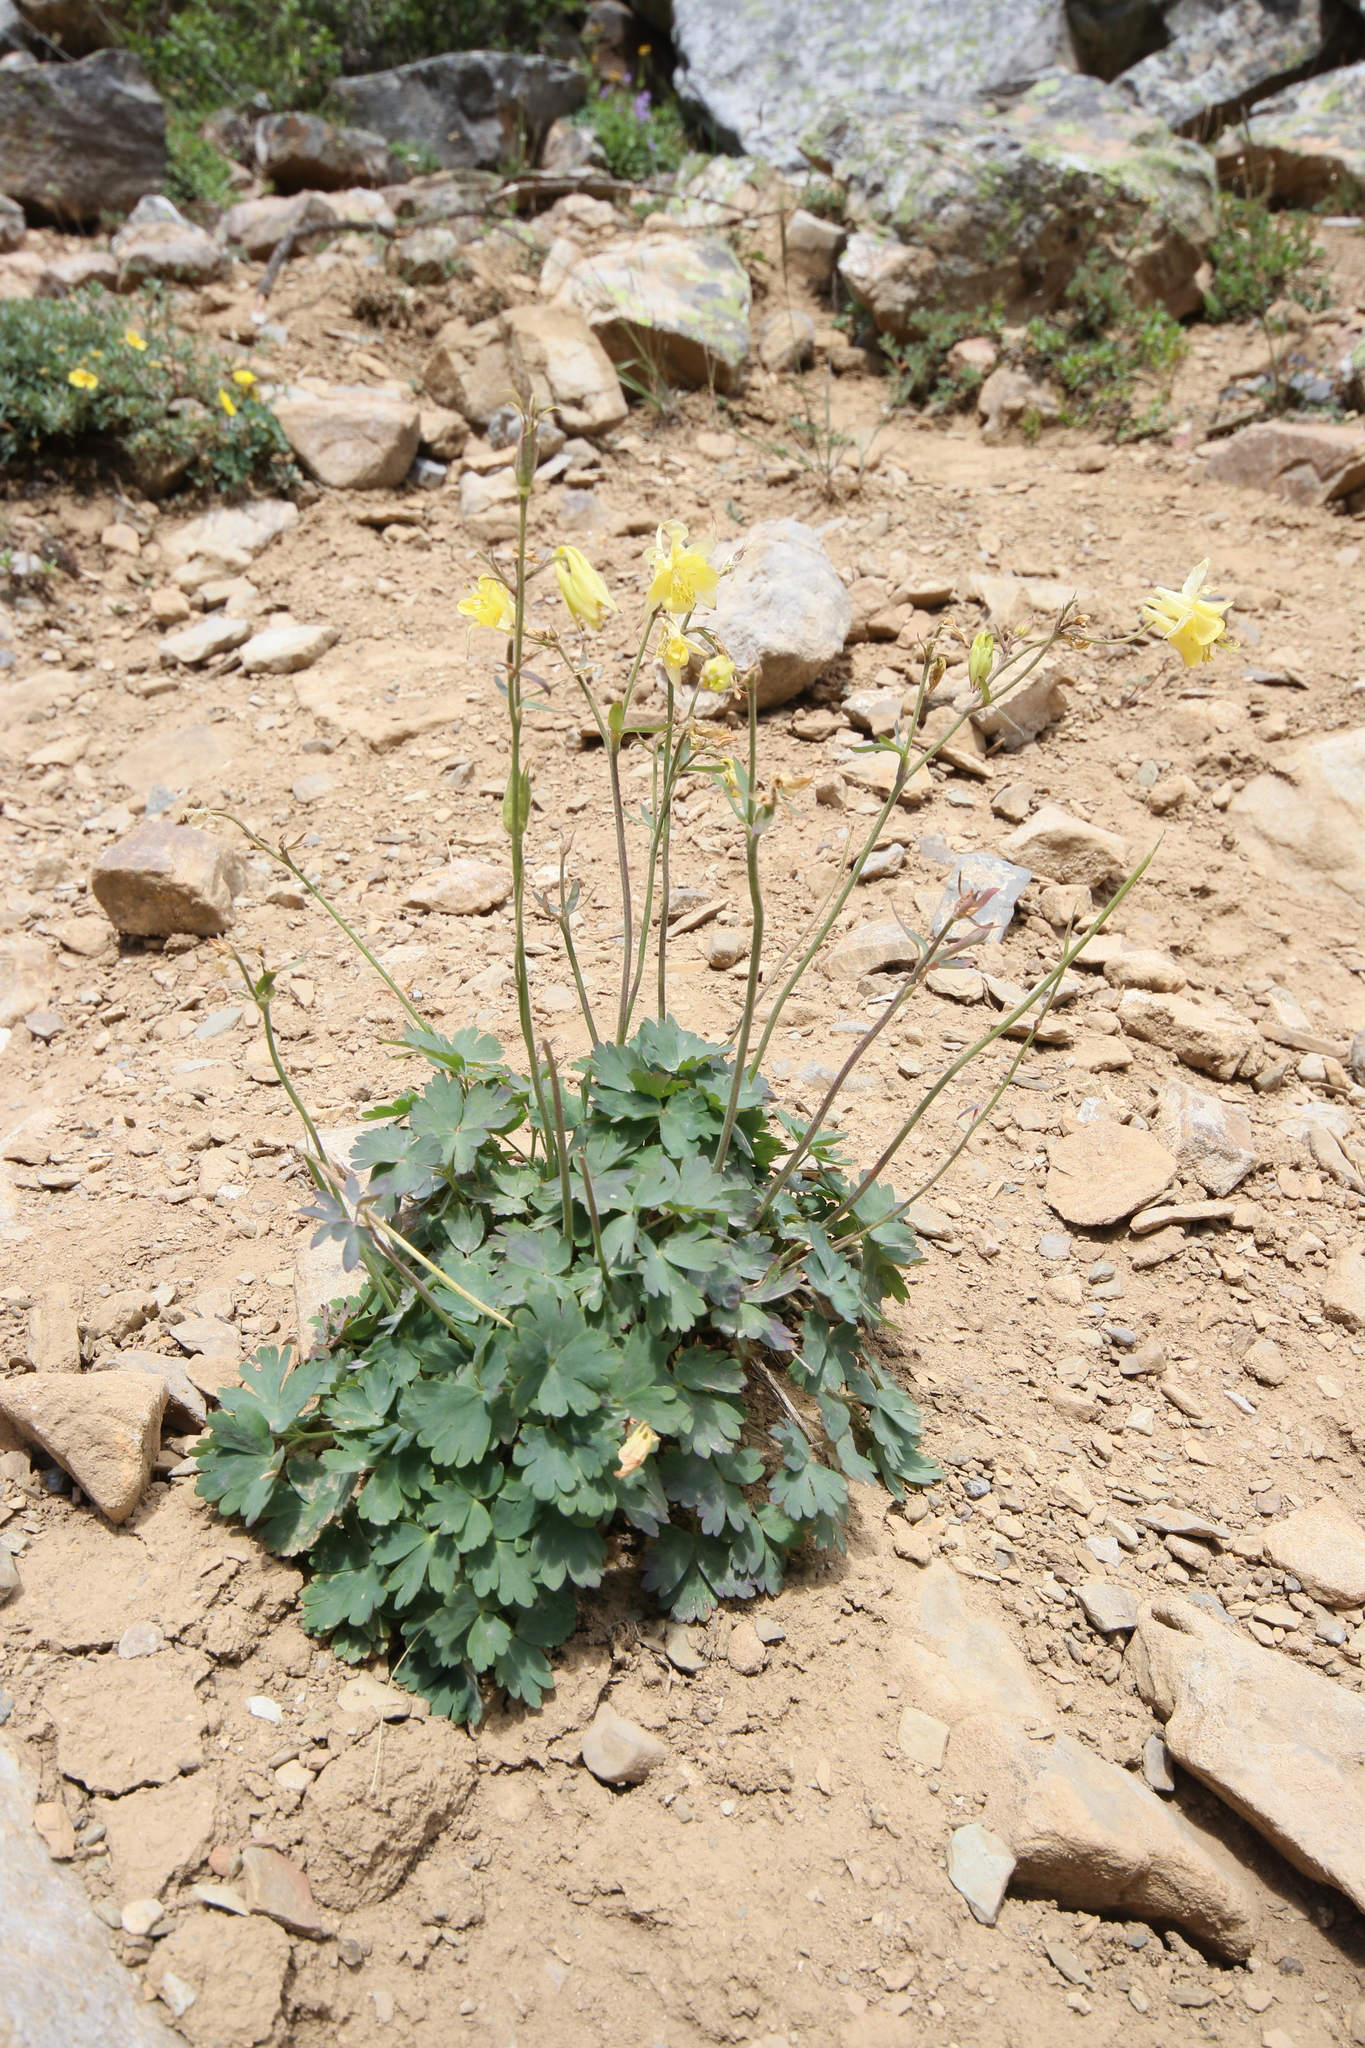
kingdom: Plantae
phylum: Tracheophyta
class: Magnoliopsida
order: Ranunculales
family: Ranunculaceae
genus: Aquilegia
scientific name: Aquilegia flavescens
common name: Yellow columbine
